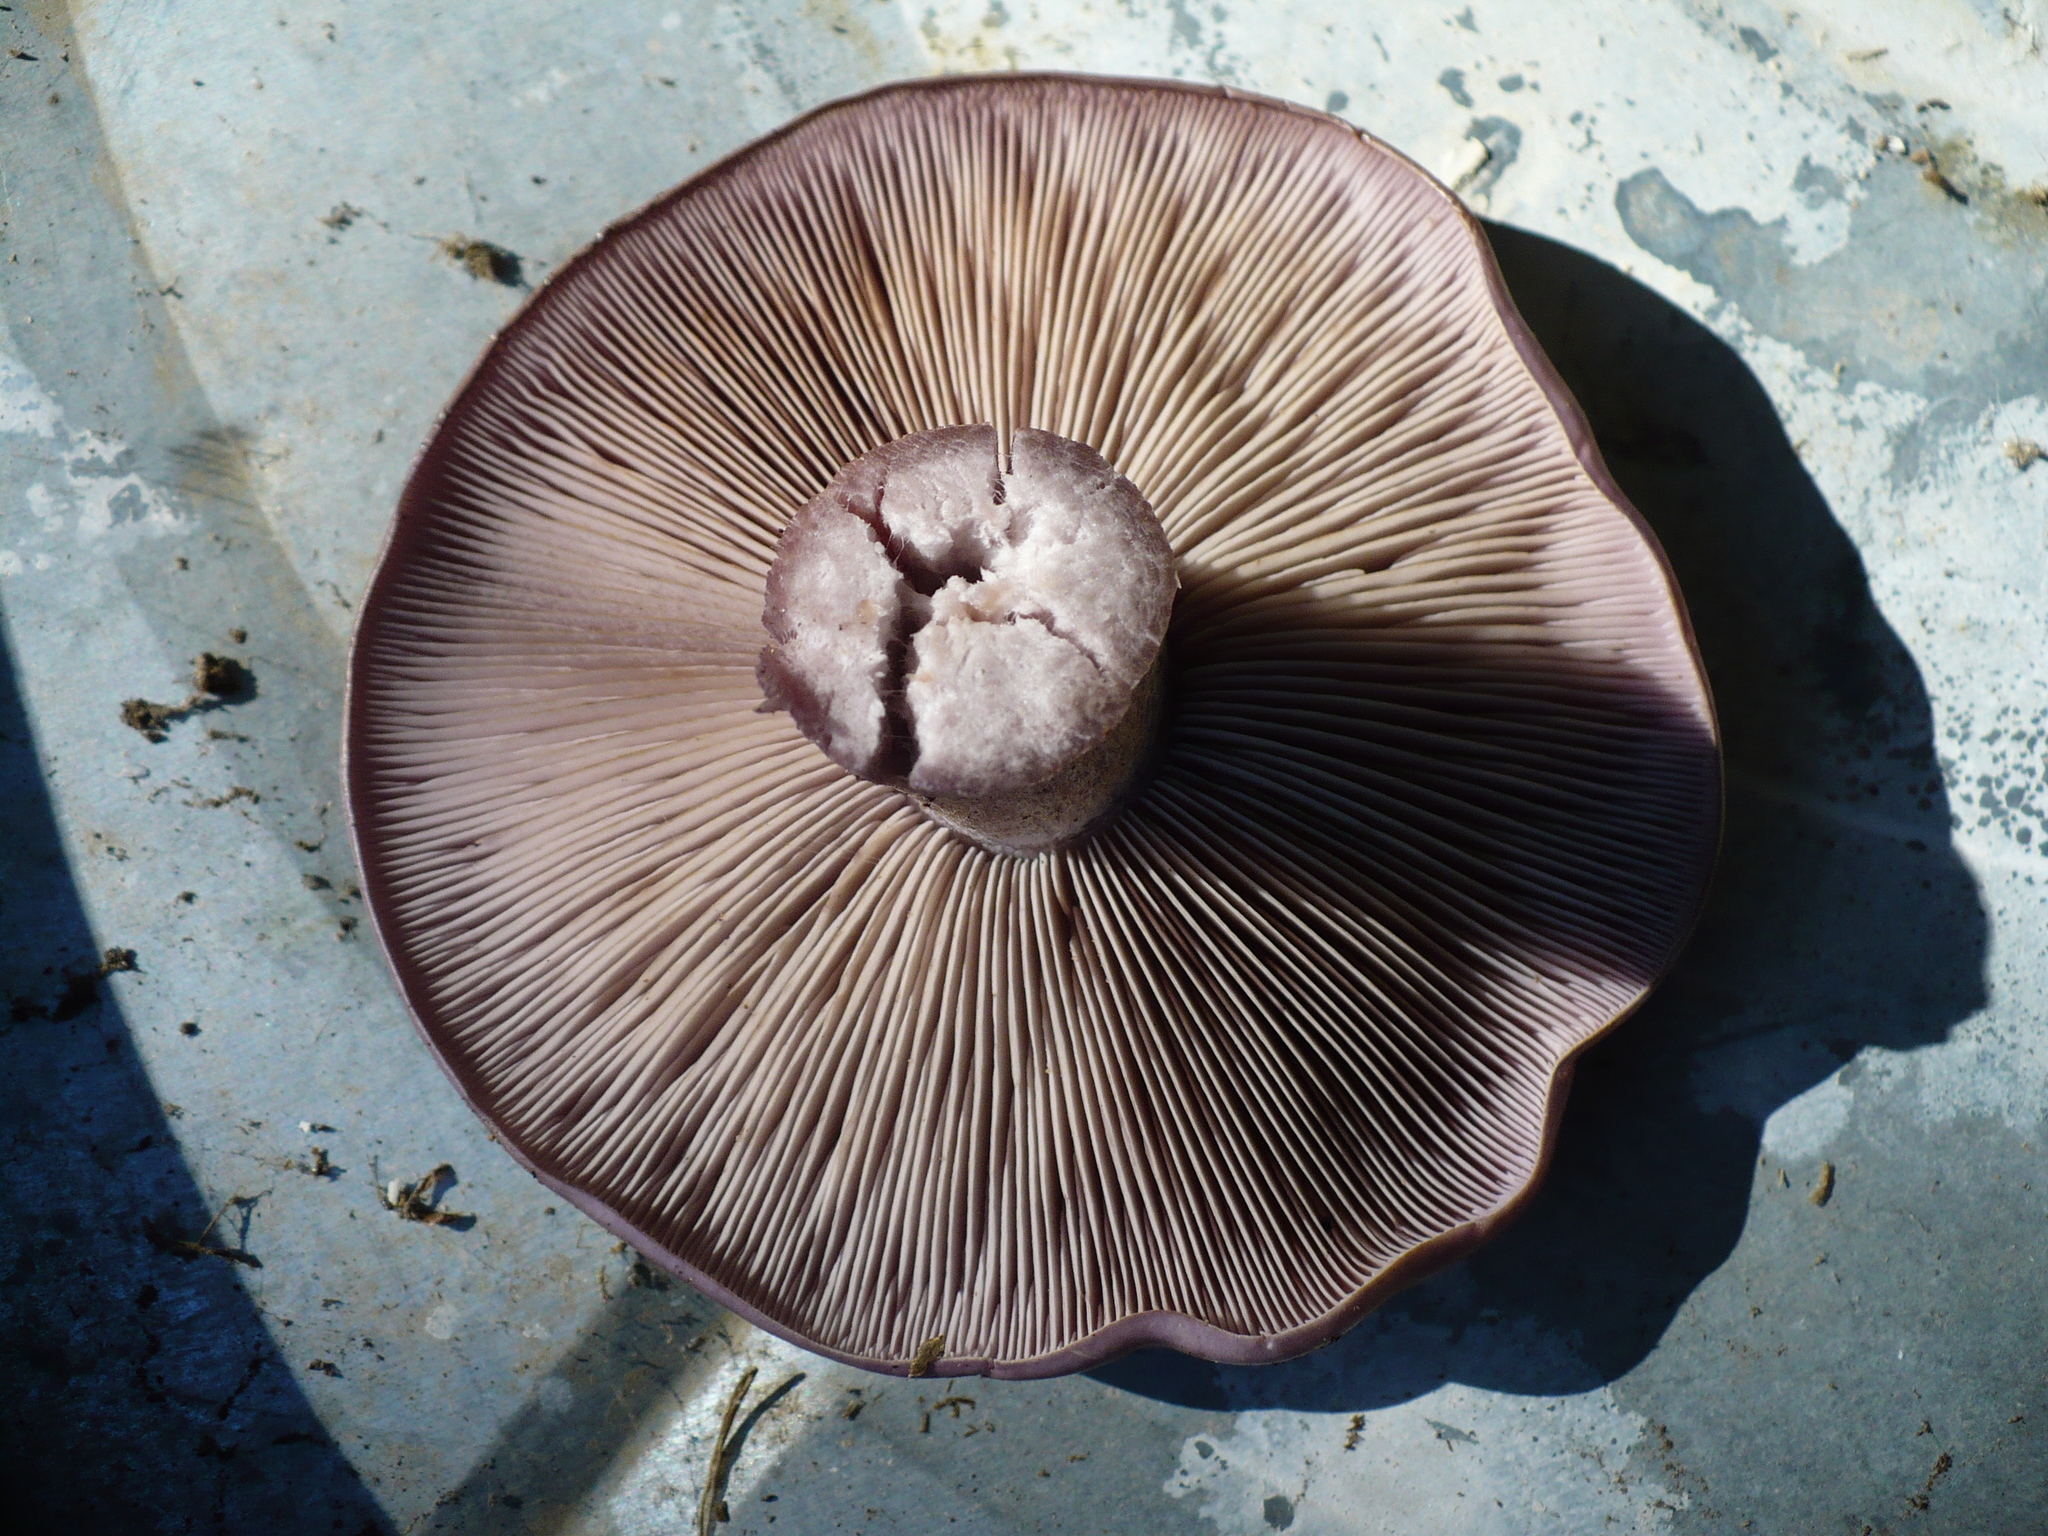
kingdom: Fungi
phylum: Basidiomycota
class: Agaricomycetes
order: Agaricales
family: Tricholomataceae
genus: Collybia
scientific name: Collybia
